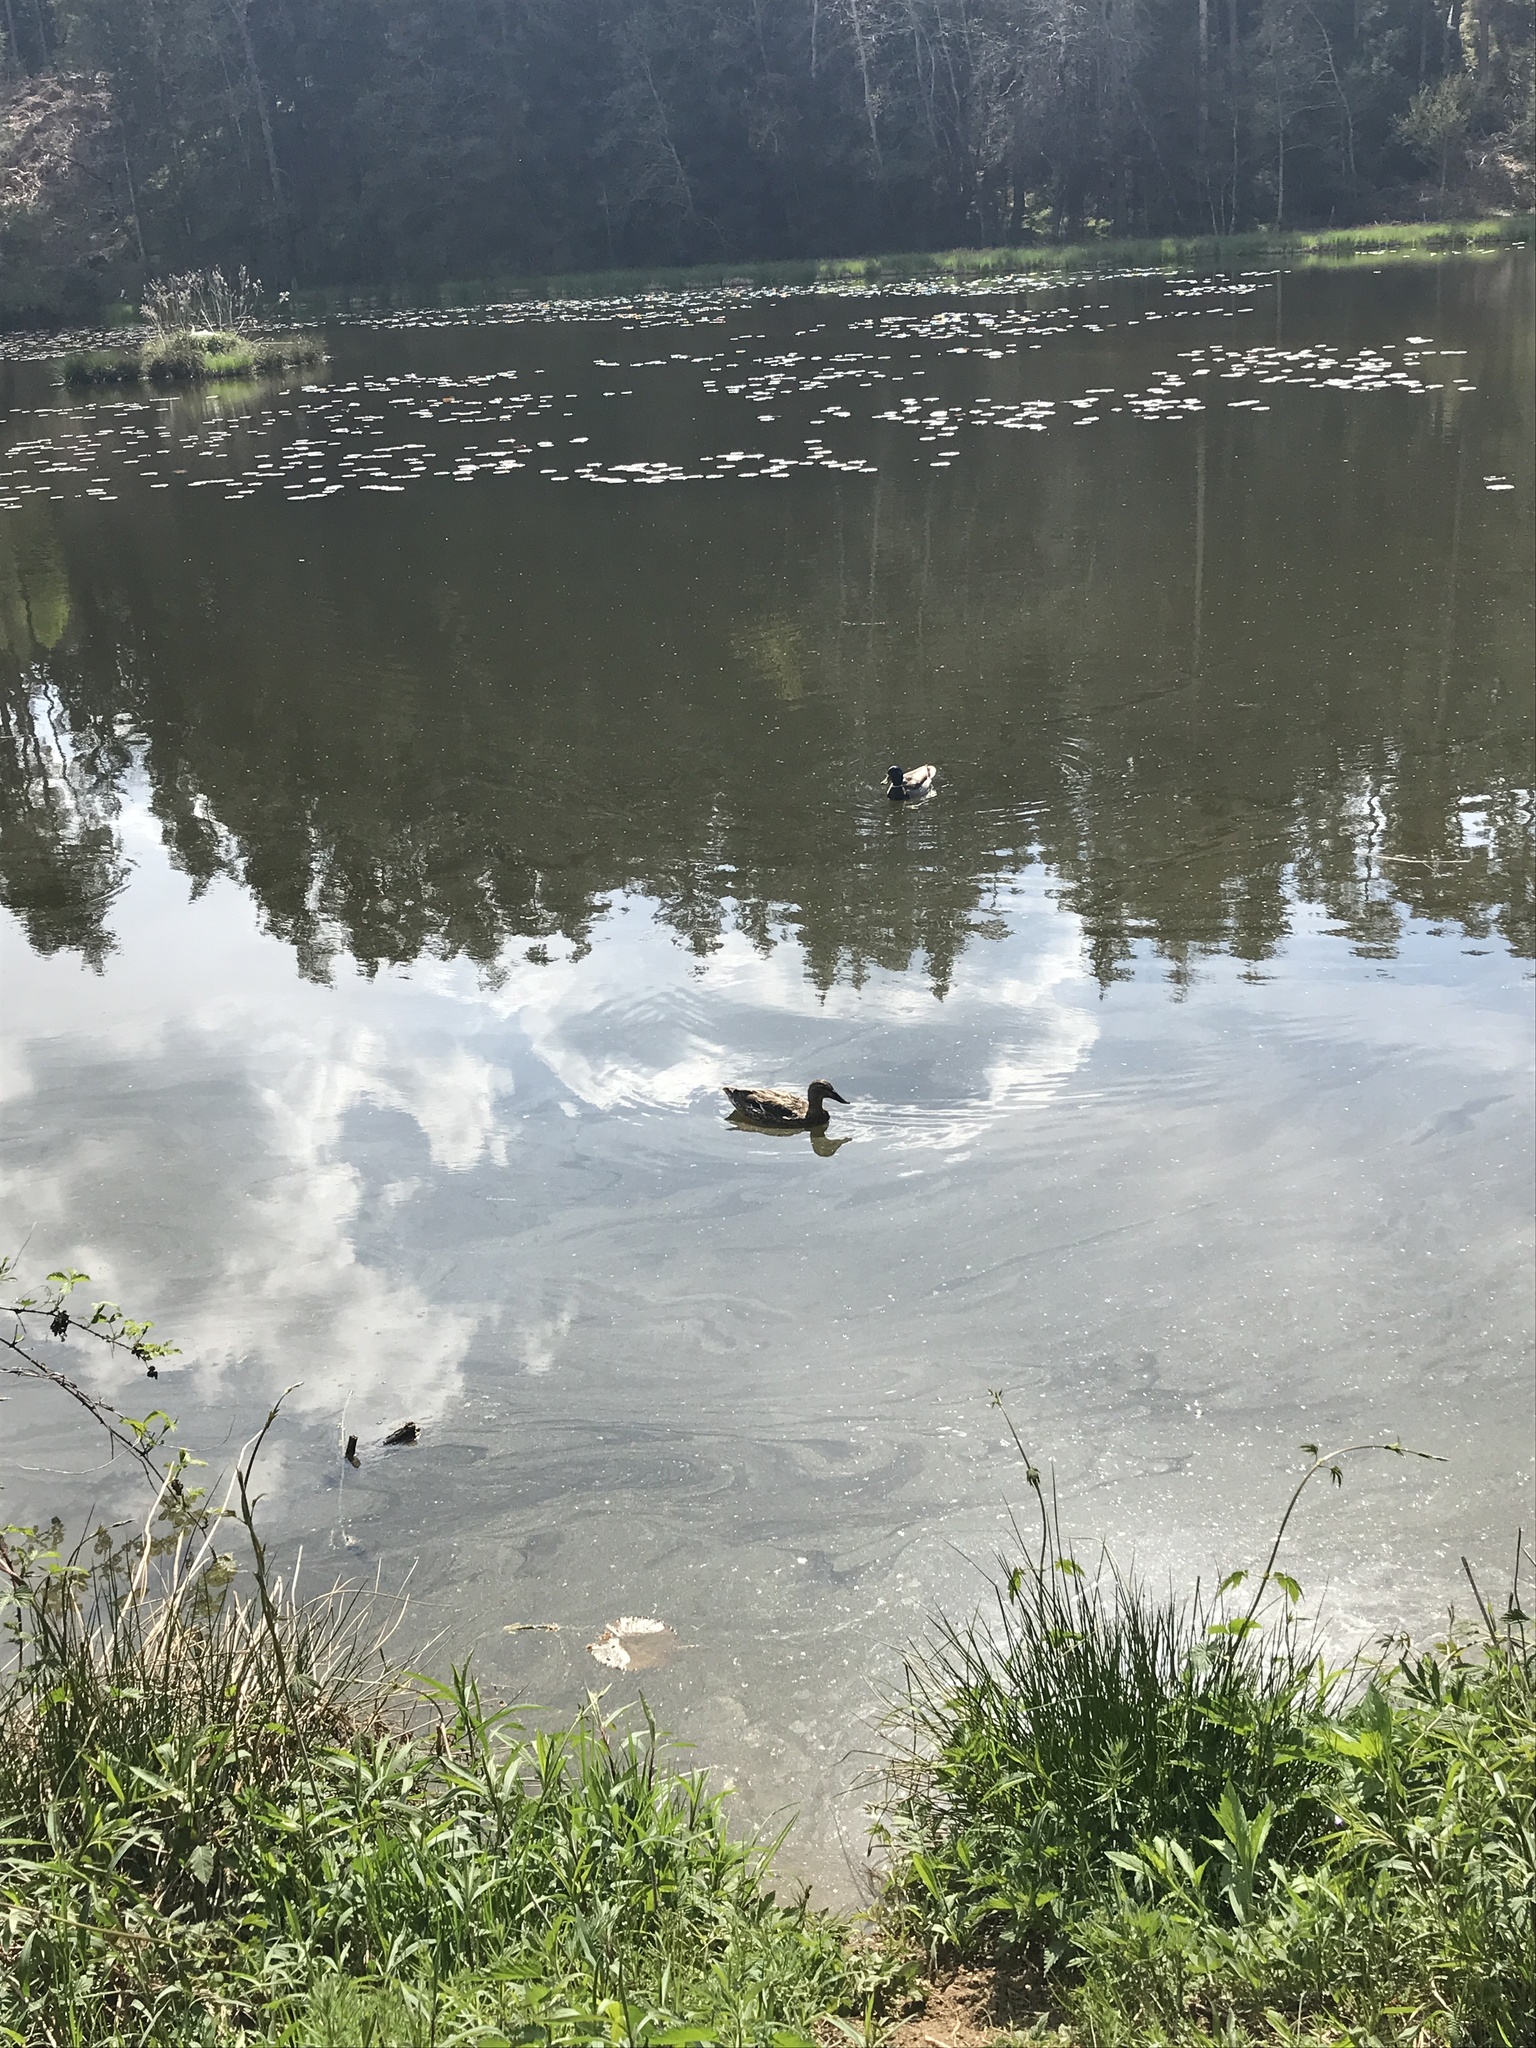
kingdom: Animalia
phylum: Chordata
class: Aves
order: Anseriformes
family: Anatidae
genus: Anas
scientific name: Anas platyrhynchos
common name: Mallard
